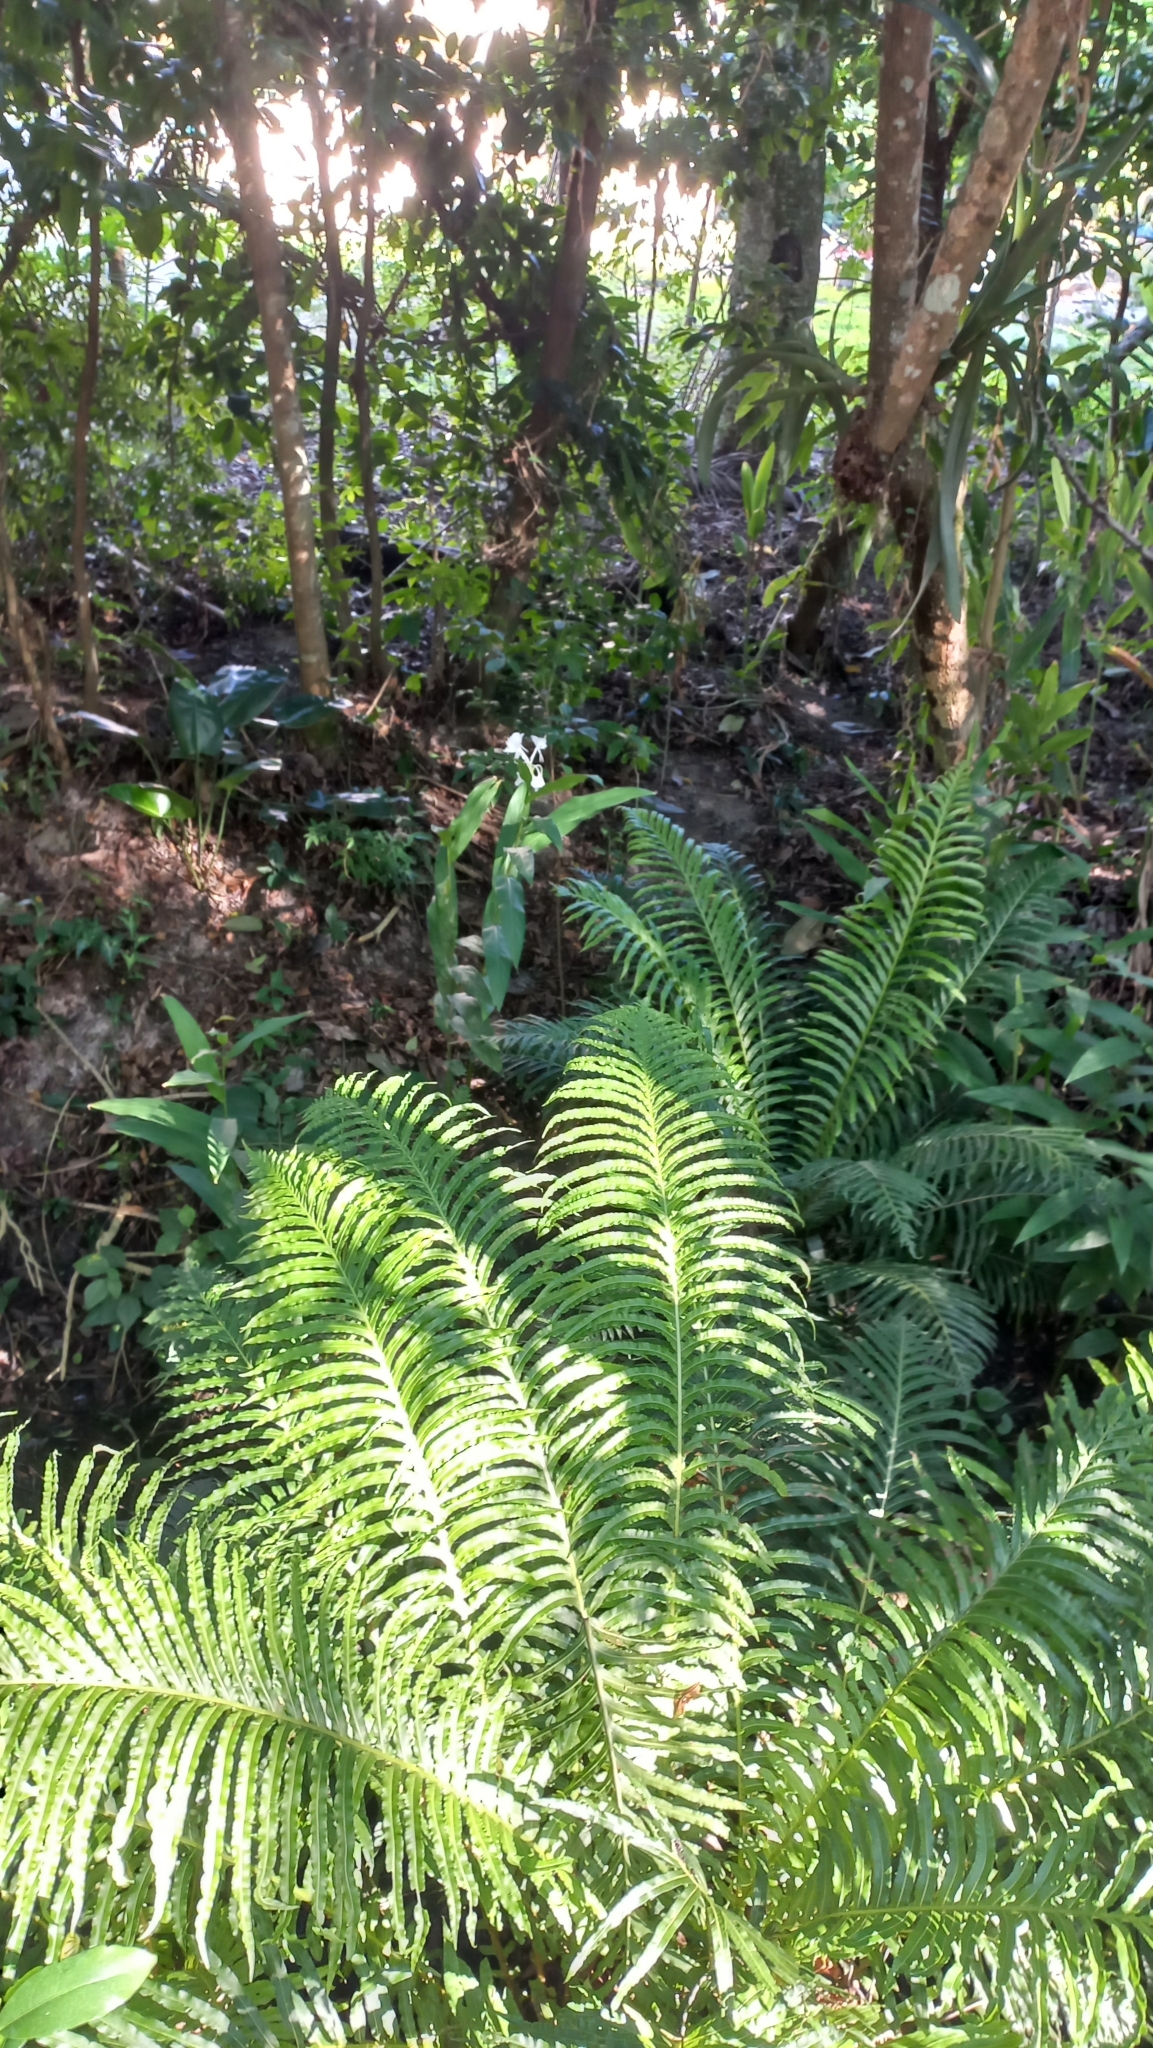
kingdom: Plantae
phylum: Tracheophyta
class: Polypodiopsida
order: Polypodiales
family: Blechnaceae
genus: Neoblechnum
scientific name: Neoblechnum brasiliense
